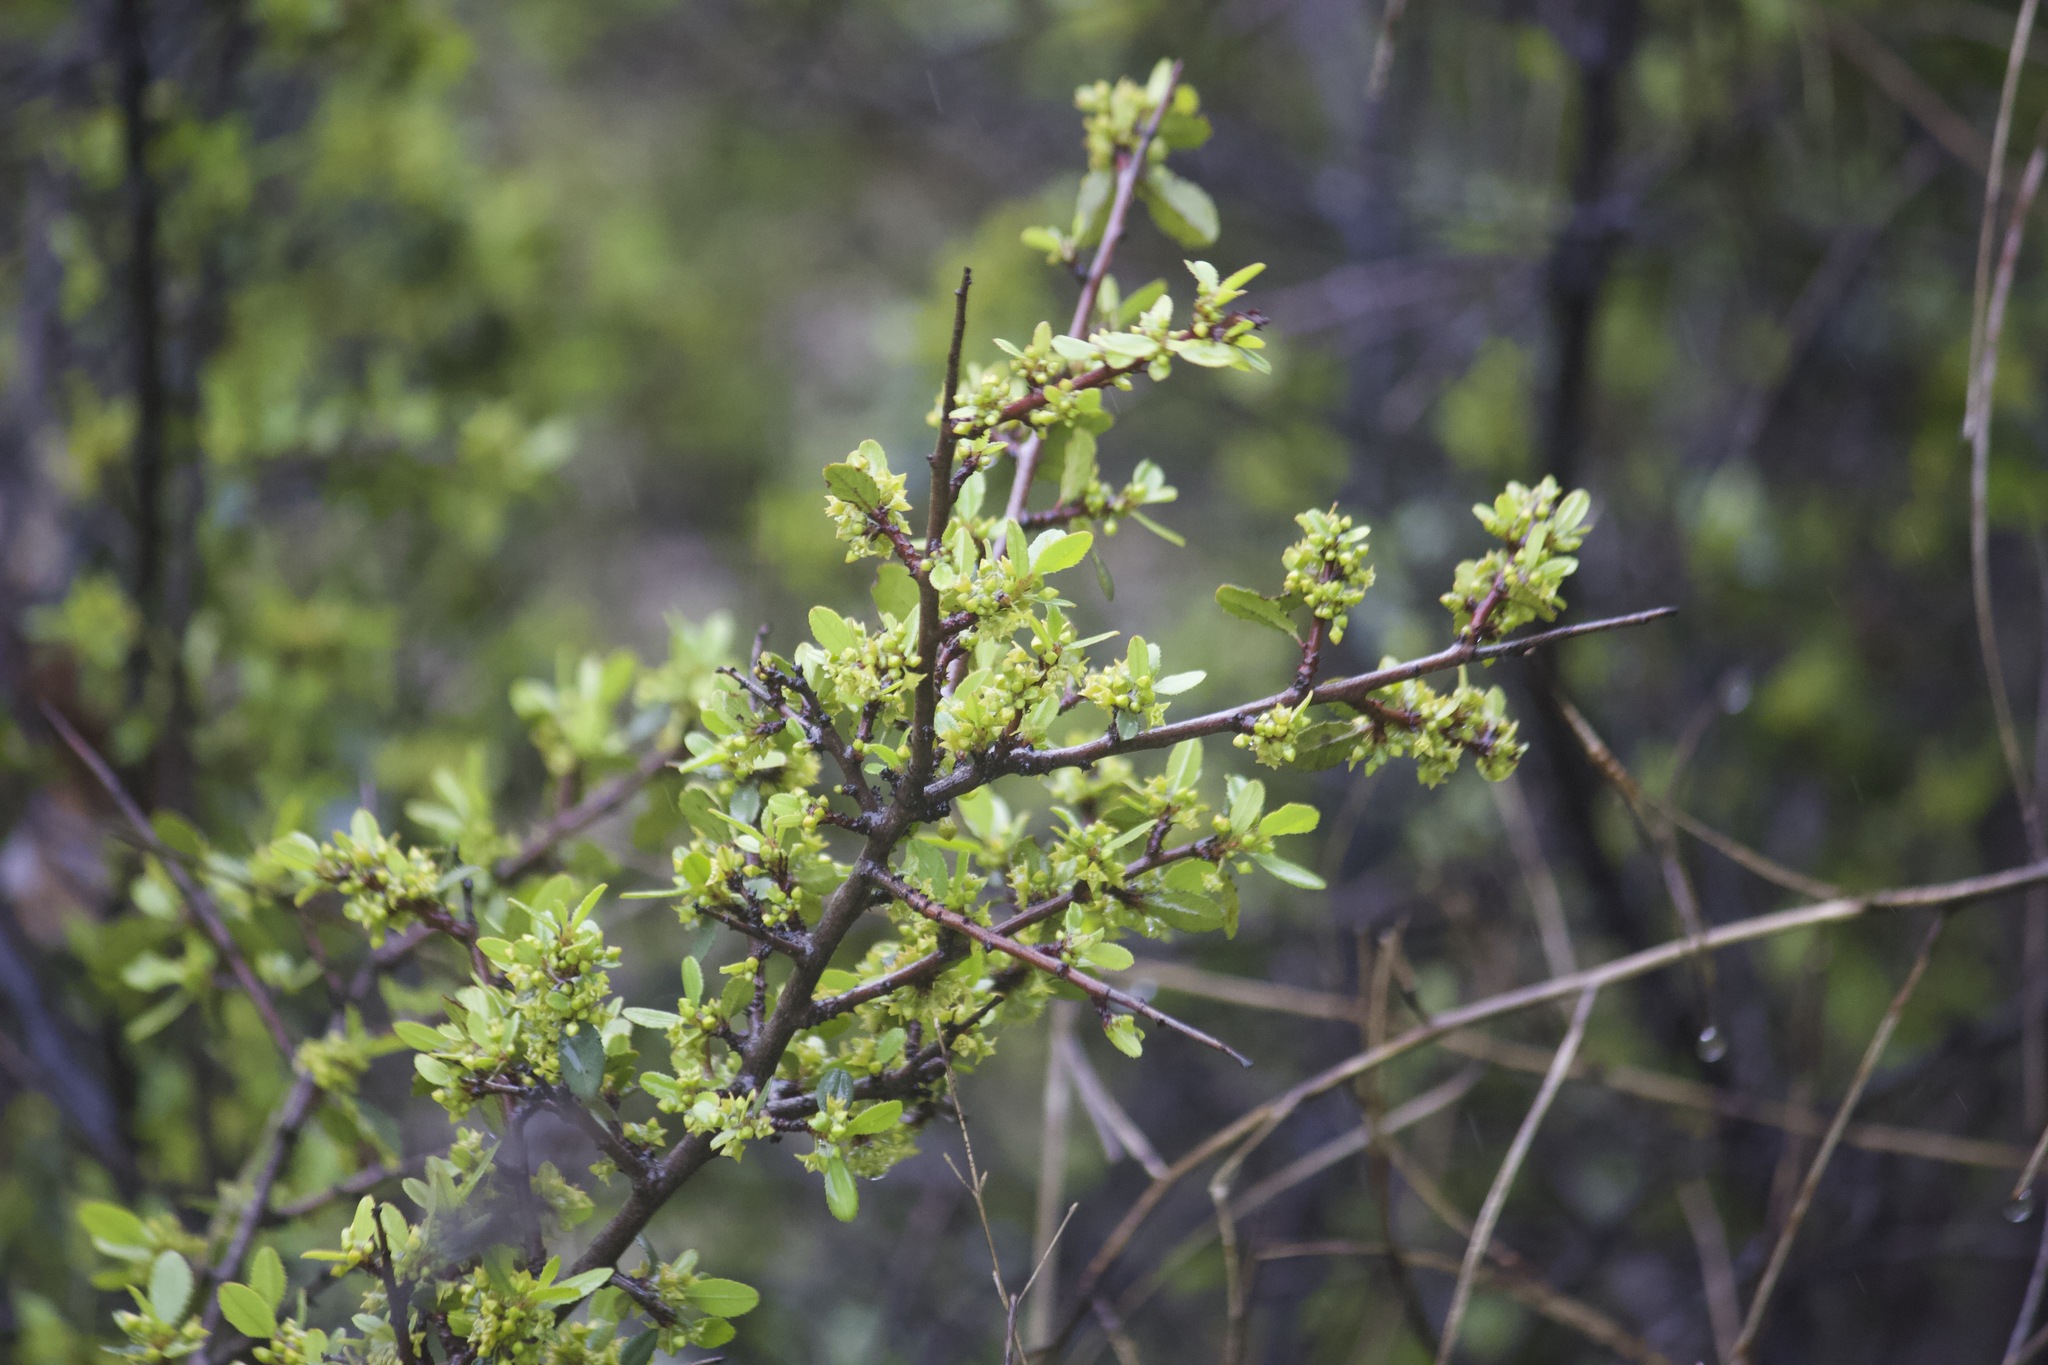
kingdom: Plantae
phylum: Tracheophyta
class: Magnoliopsida
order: Rosales
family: Rhamnaceae
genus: Endotropis
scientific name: Endotropis crocea
